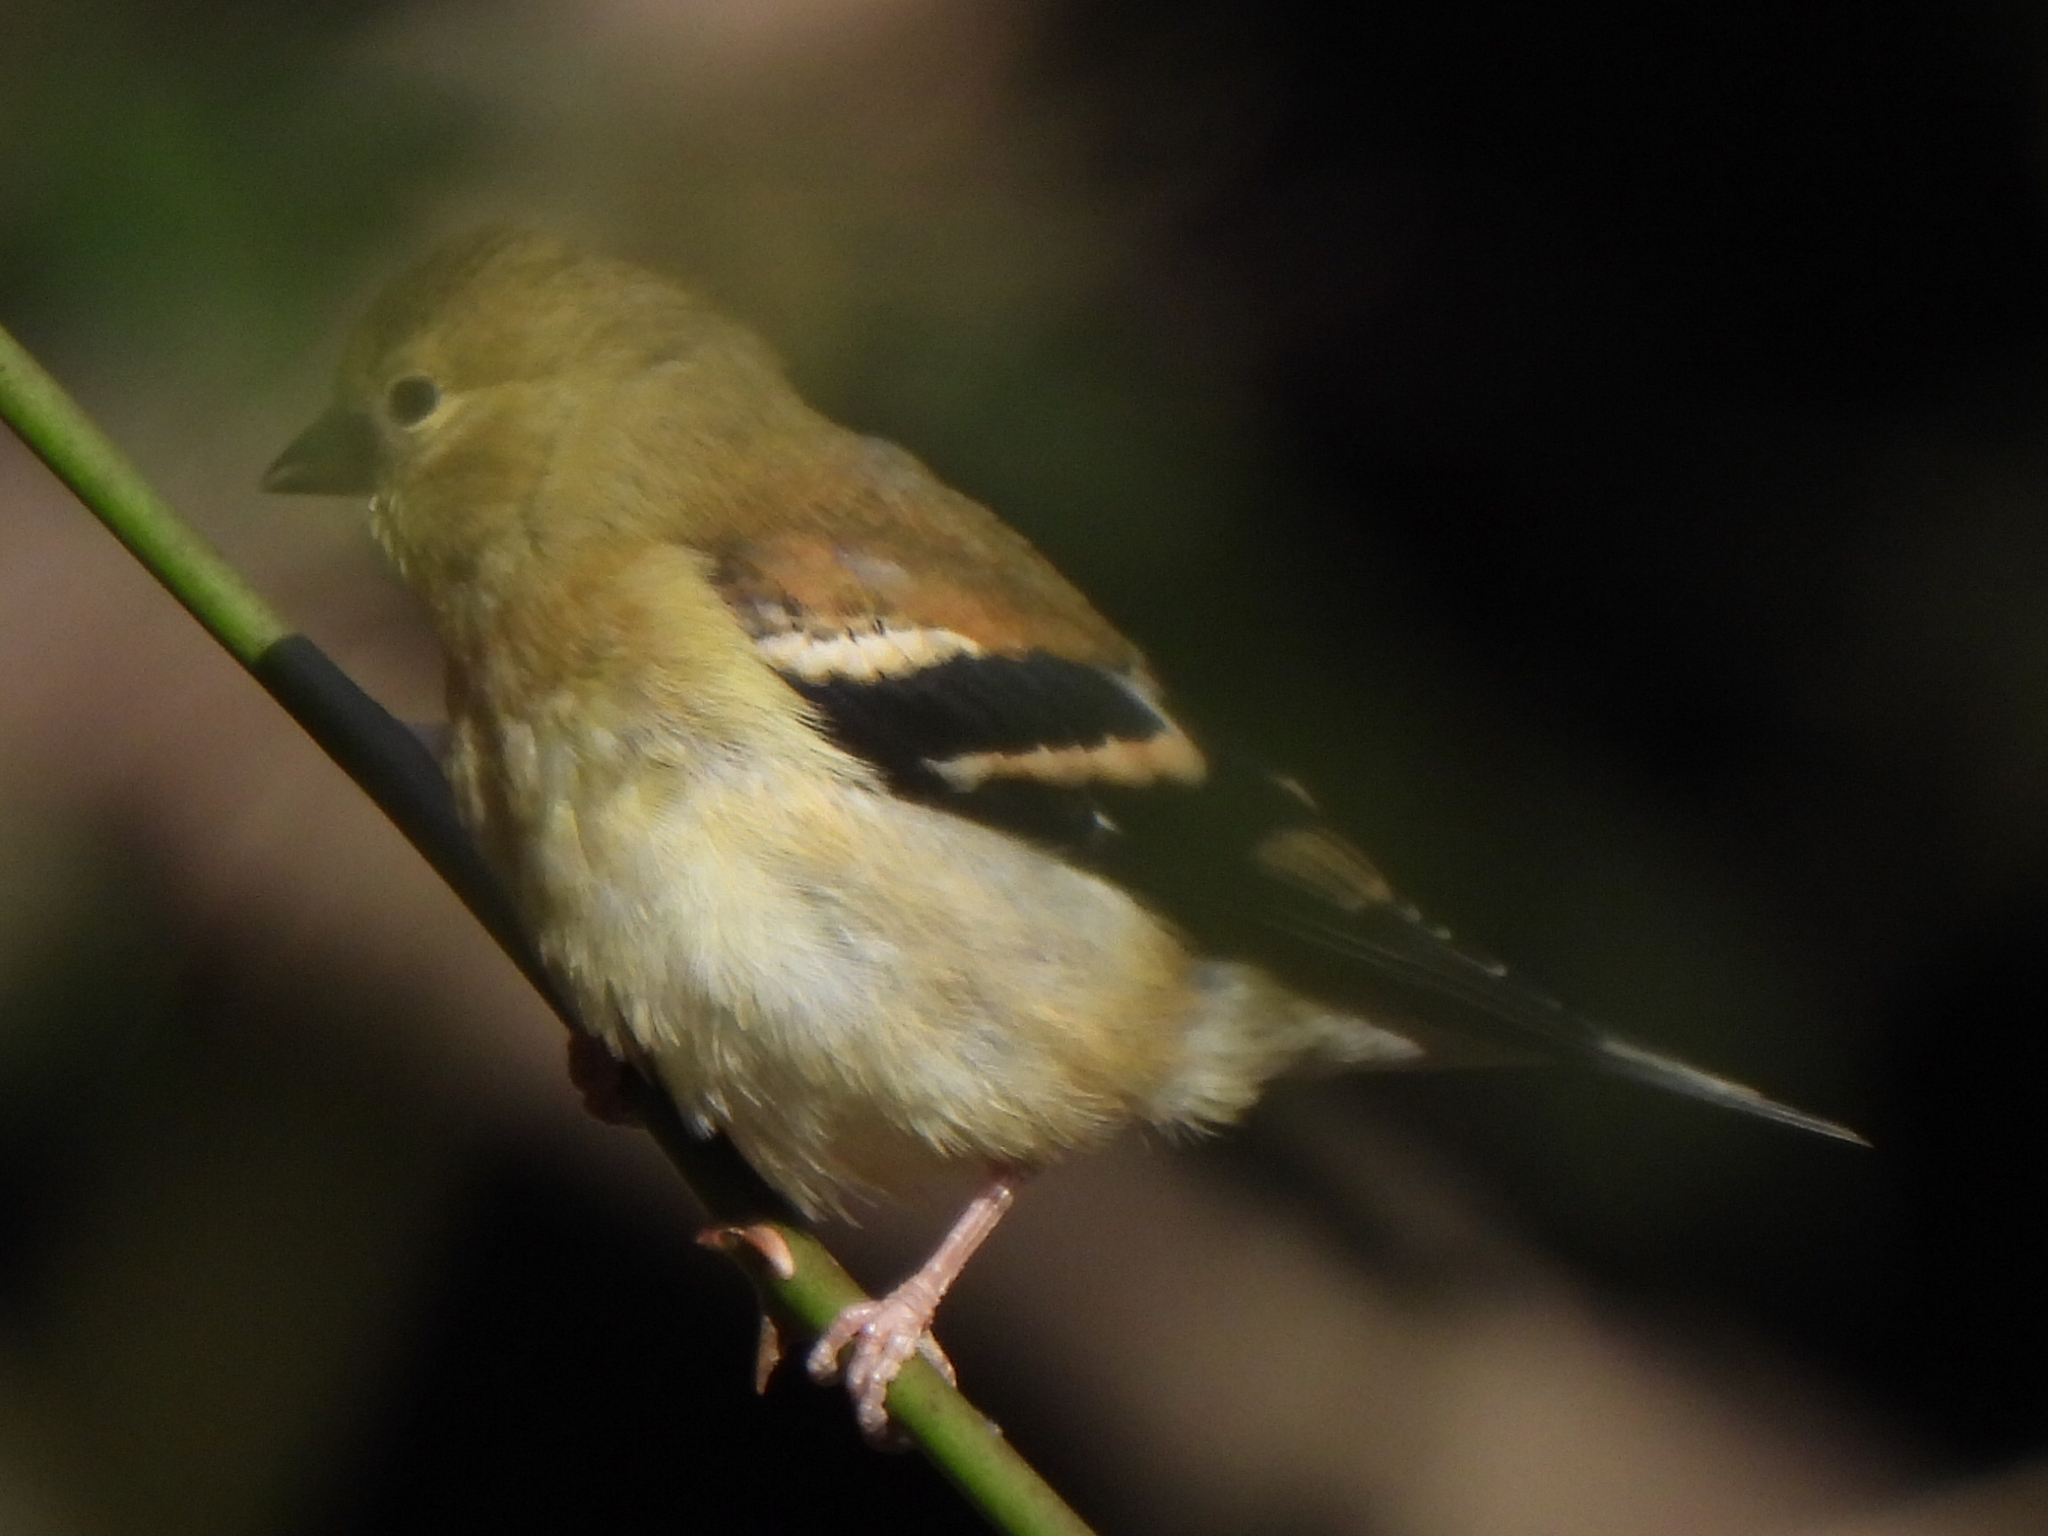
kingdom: Animalia
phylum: Chordata
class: Aves
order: Passeriformes
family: Fringillidae
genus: Spinus
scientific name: Spinus tristis
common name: American goldfinch
